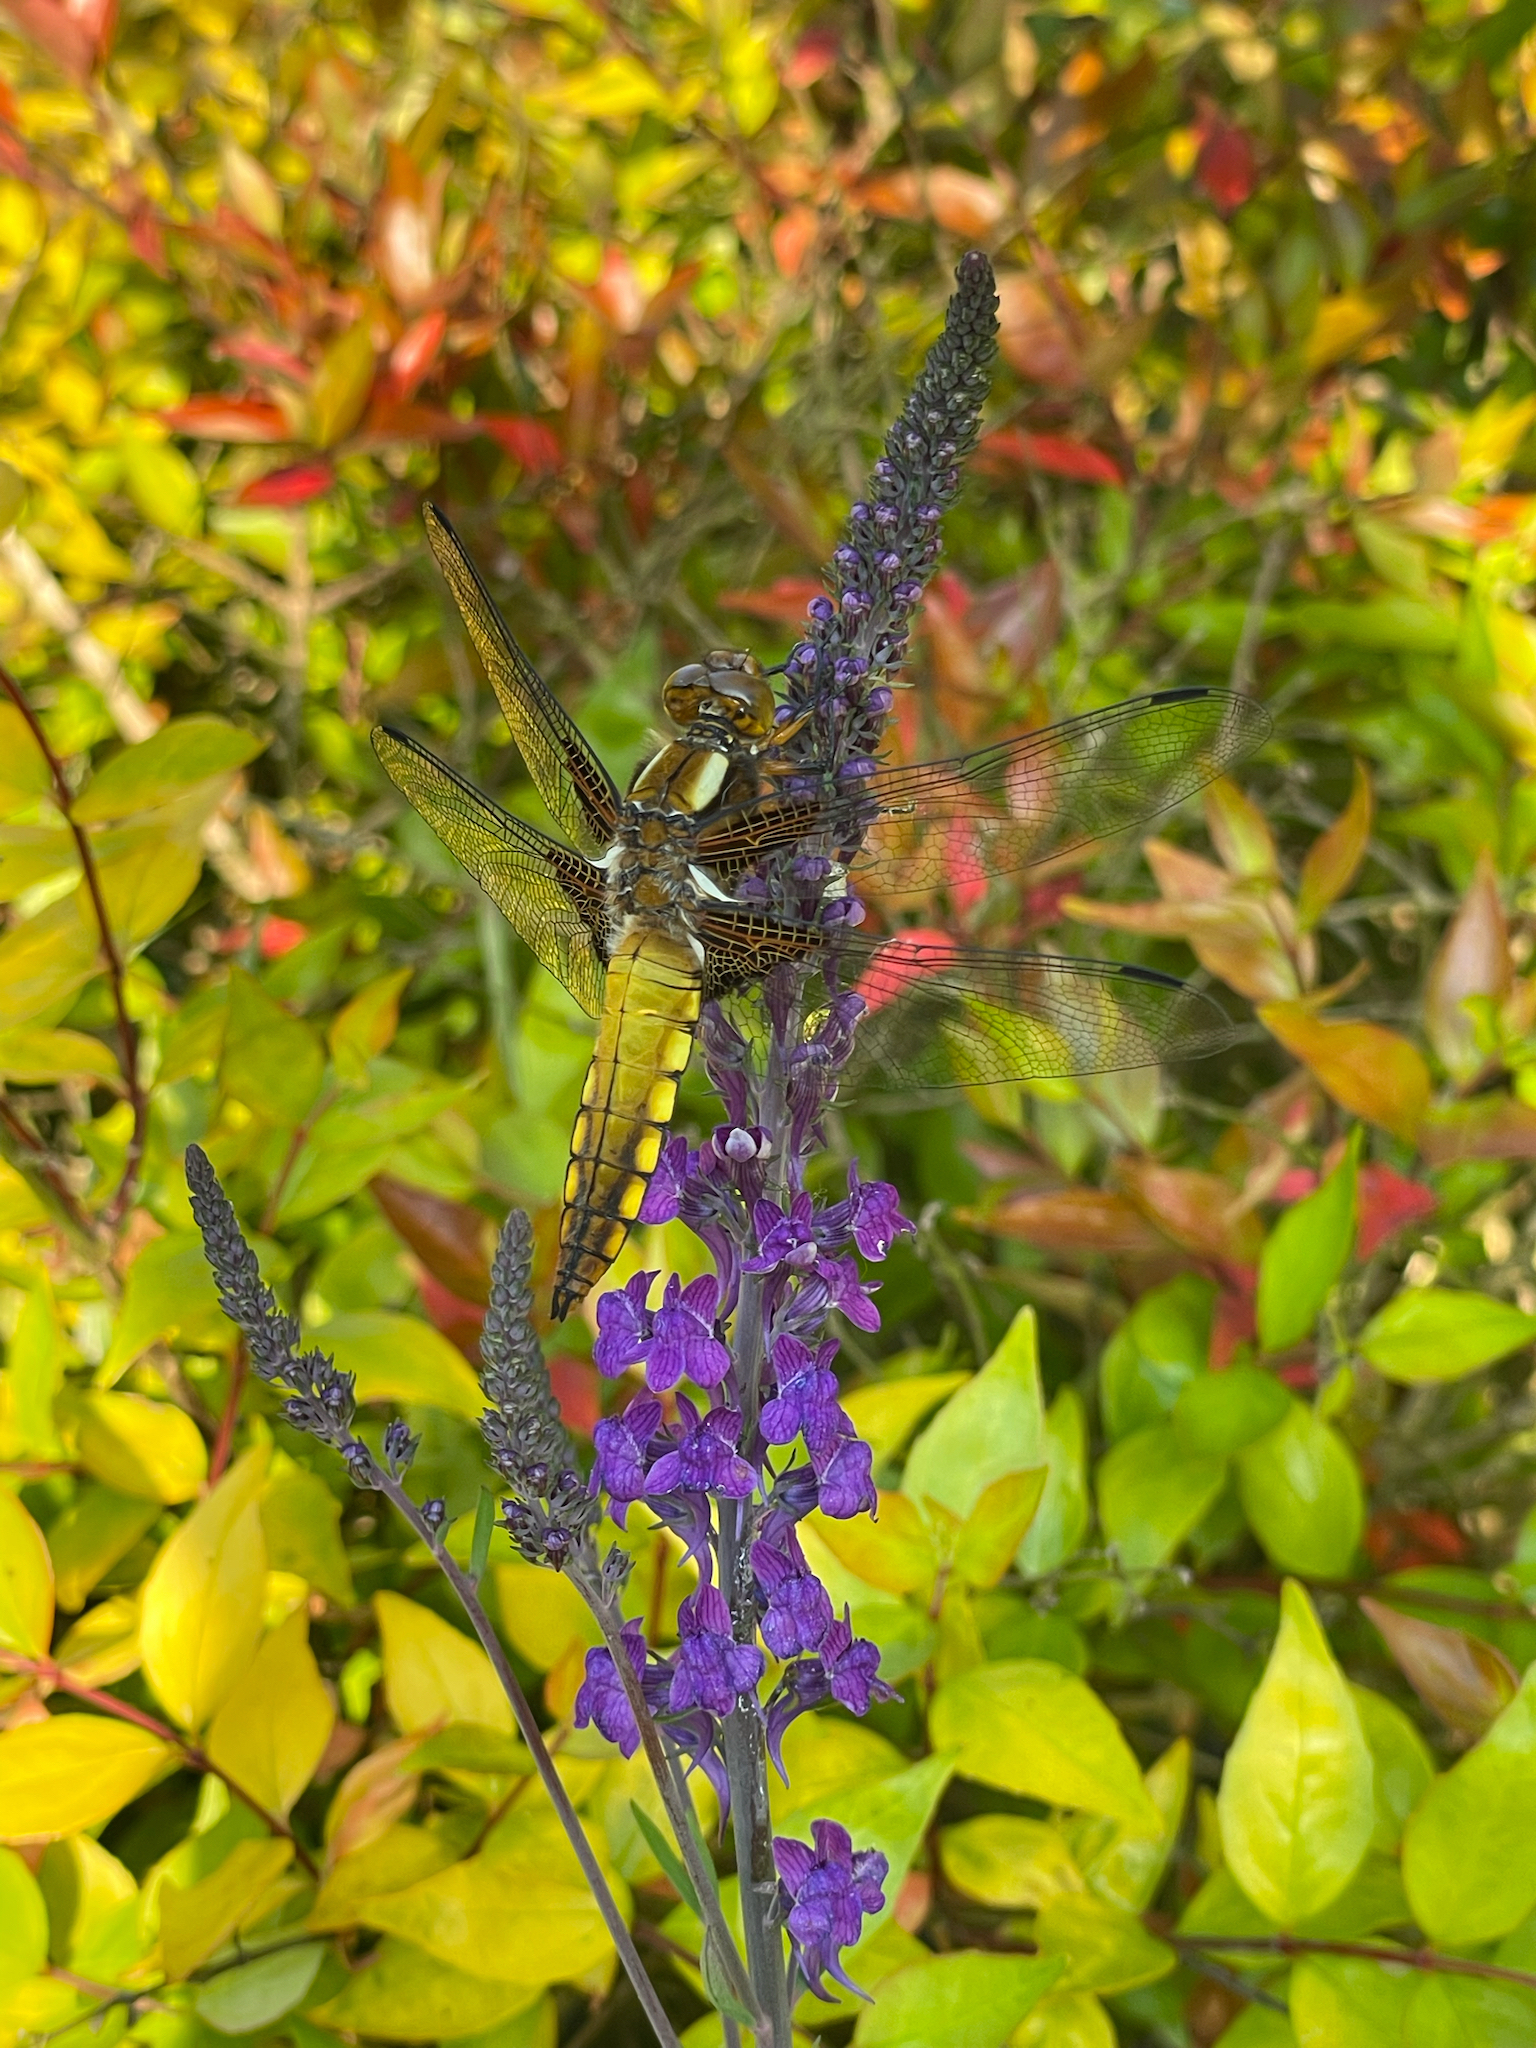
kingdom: Animalia
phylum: Arthropoda
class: Insecta
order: Odonata
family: Libellulidae
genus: Libellula
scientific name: Libellula depressa
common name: Broad-bodied chaser
